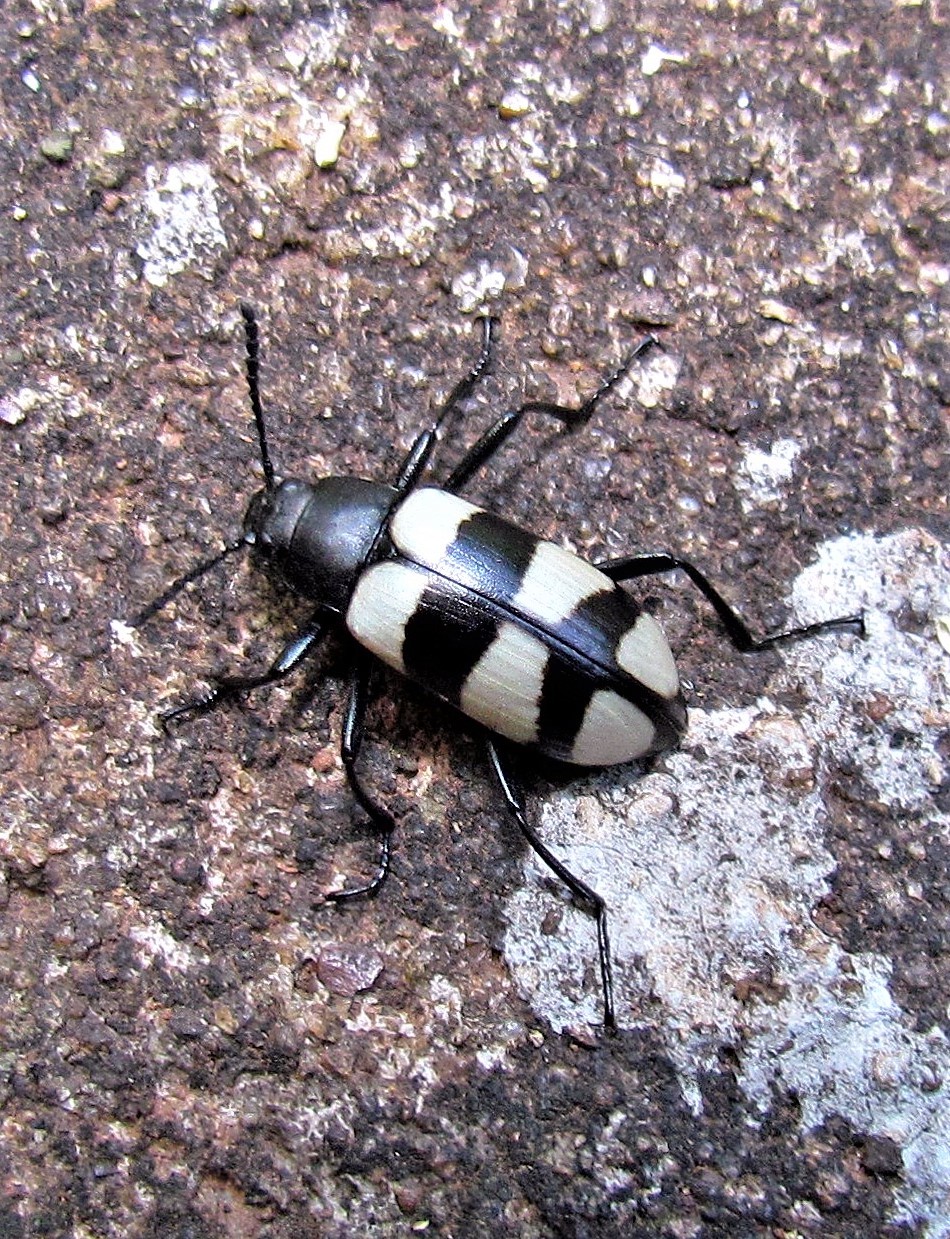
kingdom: Animalia
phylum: Arthropoda
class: Insecta
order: Coleoptera
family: Tenebrionidae
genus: Poecilesthus
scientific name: Poecilesthus
